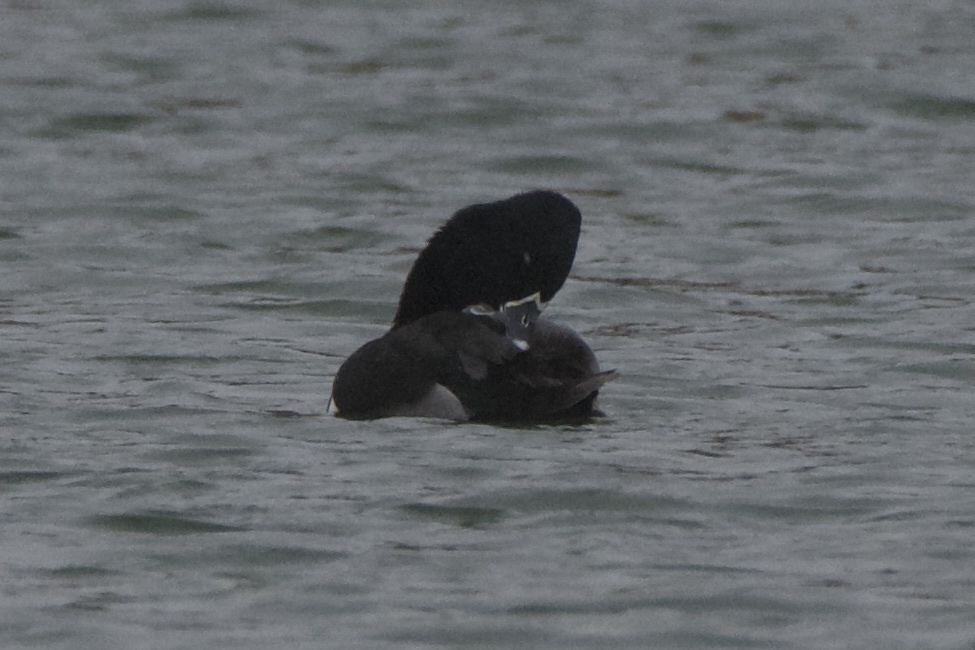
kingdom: Animalia
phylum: Chordata
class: Aves
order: Anseriformes
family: Anatidae
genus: Aythya
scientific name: Aythya collaris
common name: Ring-necked duck
